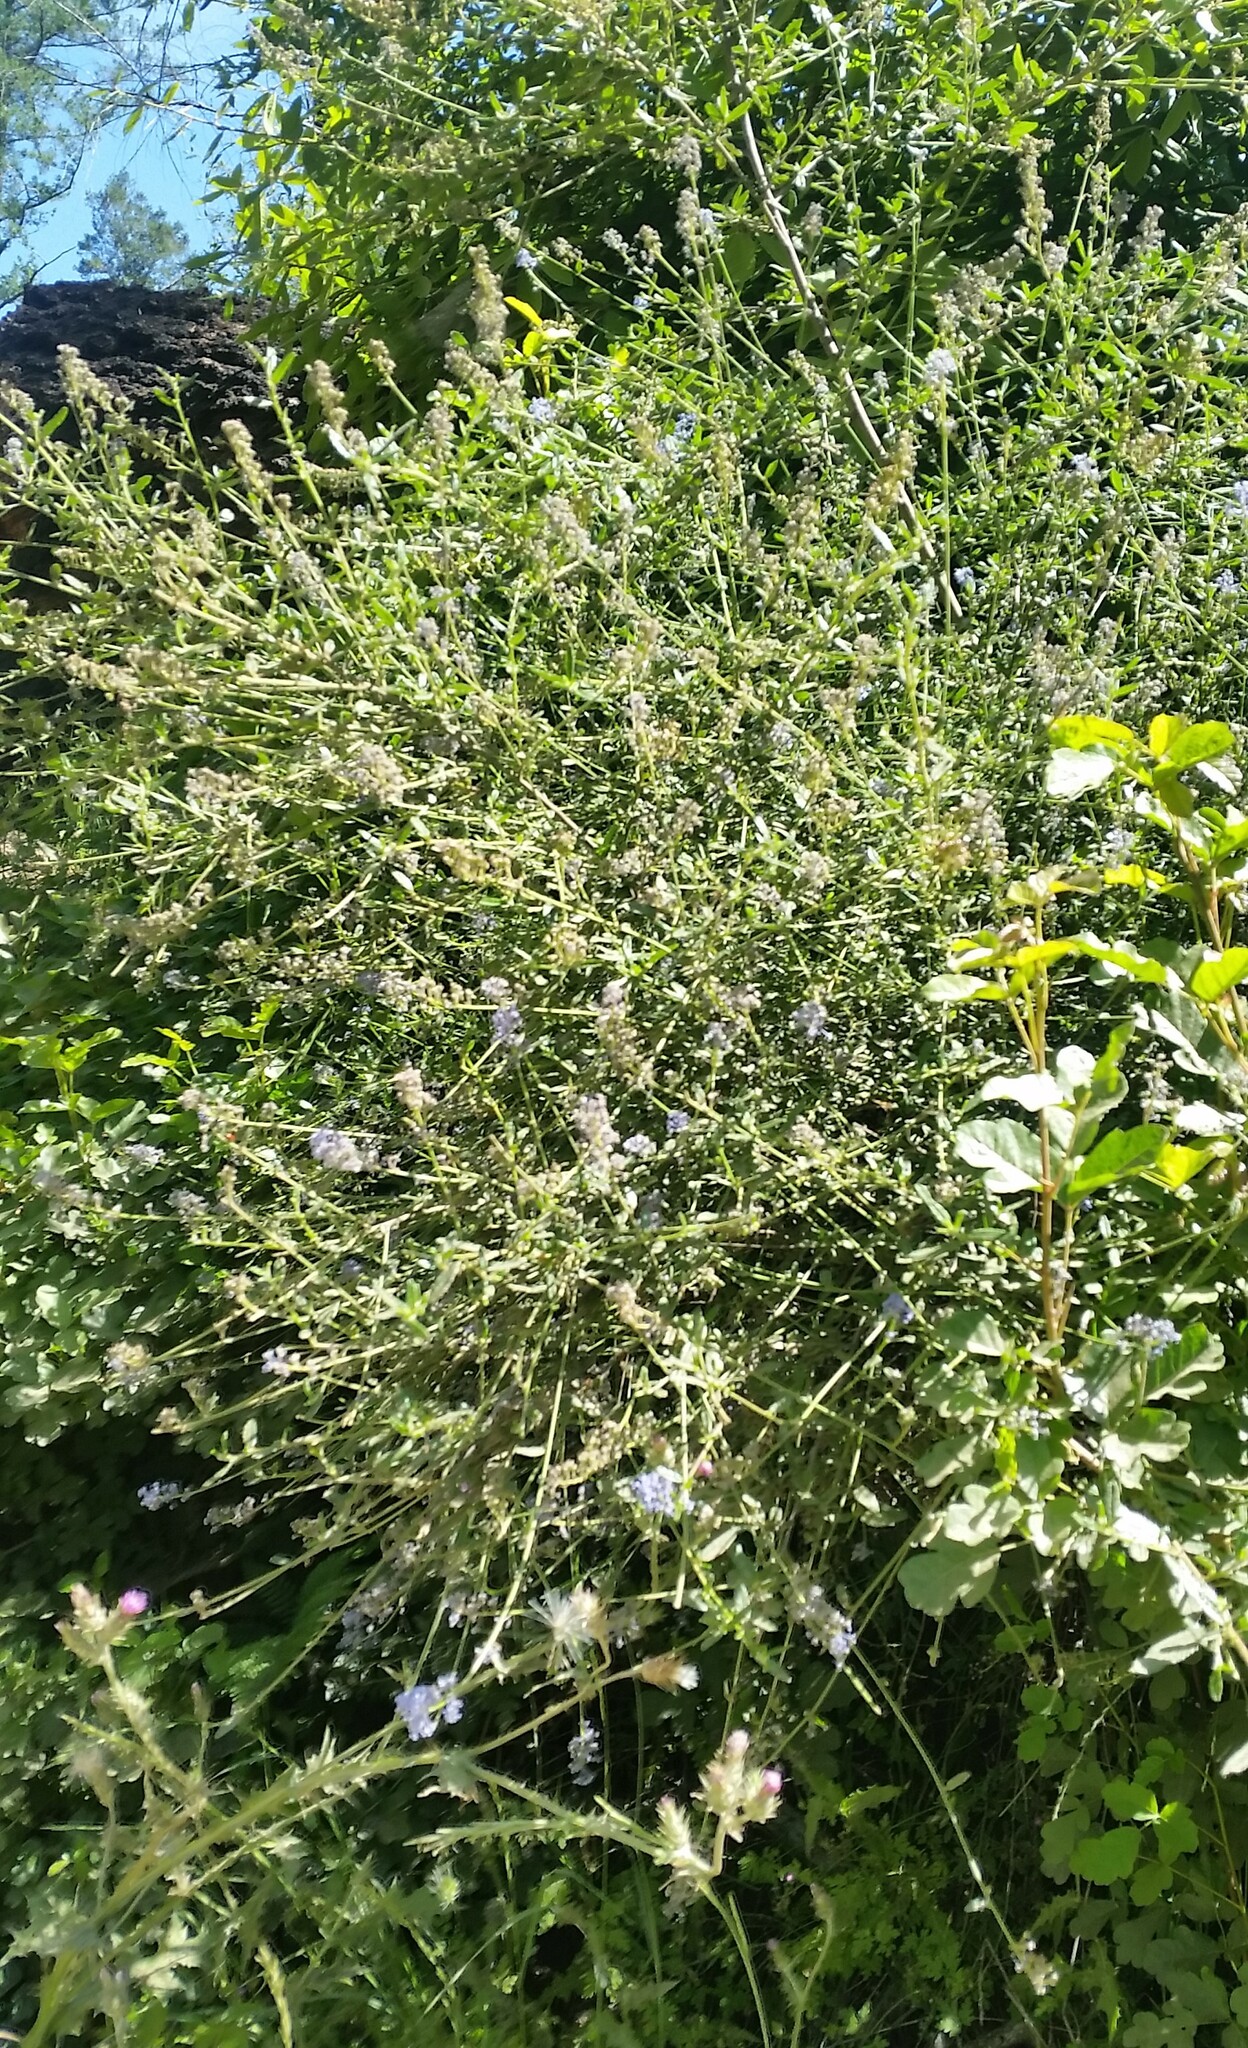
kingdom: Plantae
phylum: Tracheophyta
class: Magnoliopsida
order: Rosales
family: Rhamnaceae
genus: Ceanothus
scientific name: Ceanothus parryi
